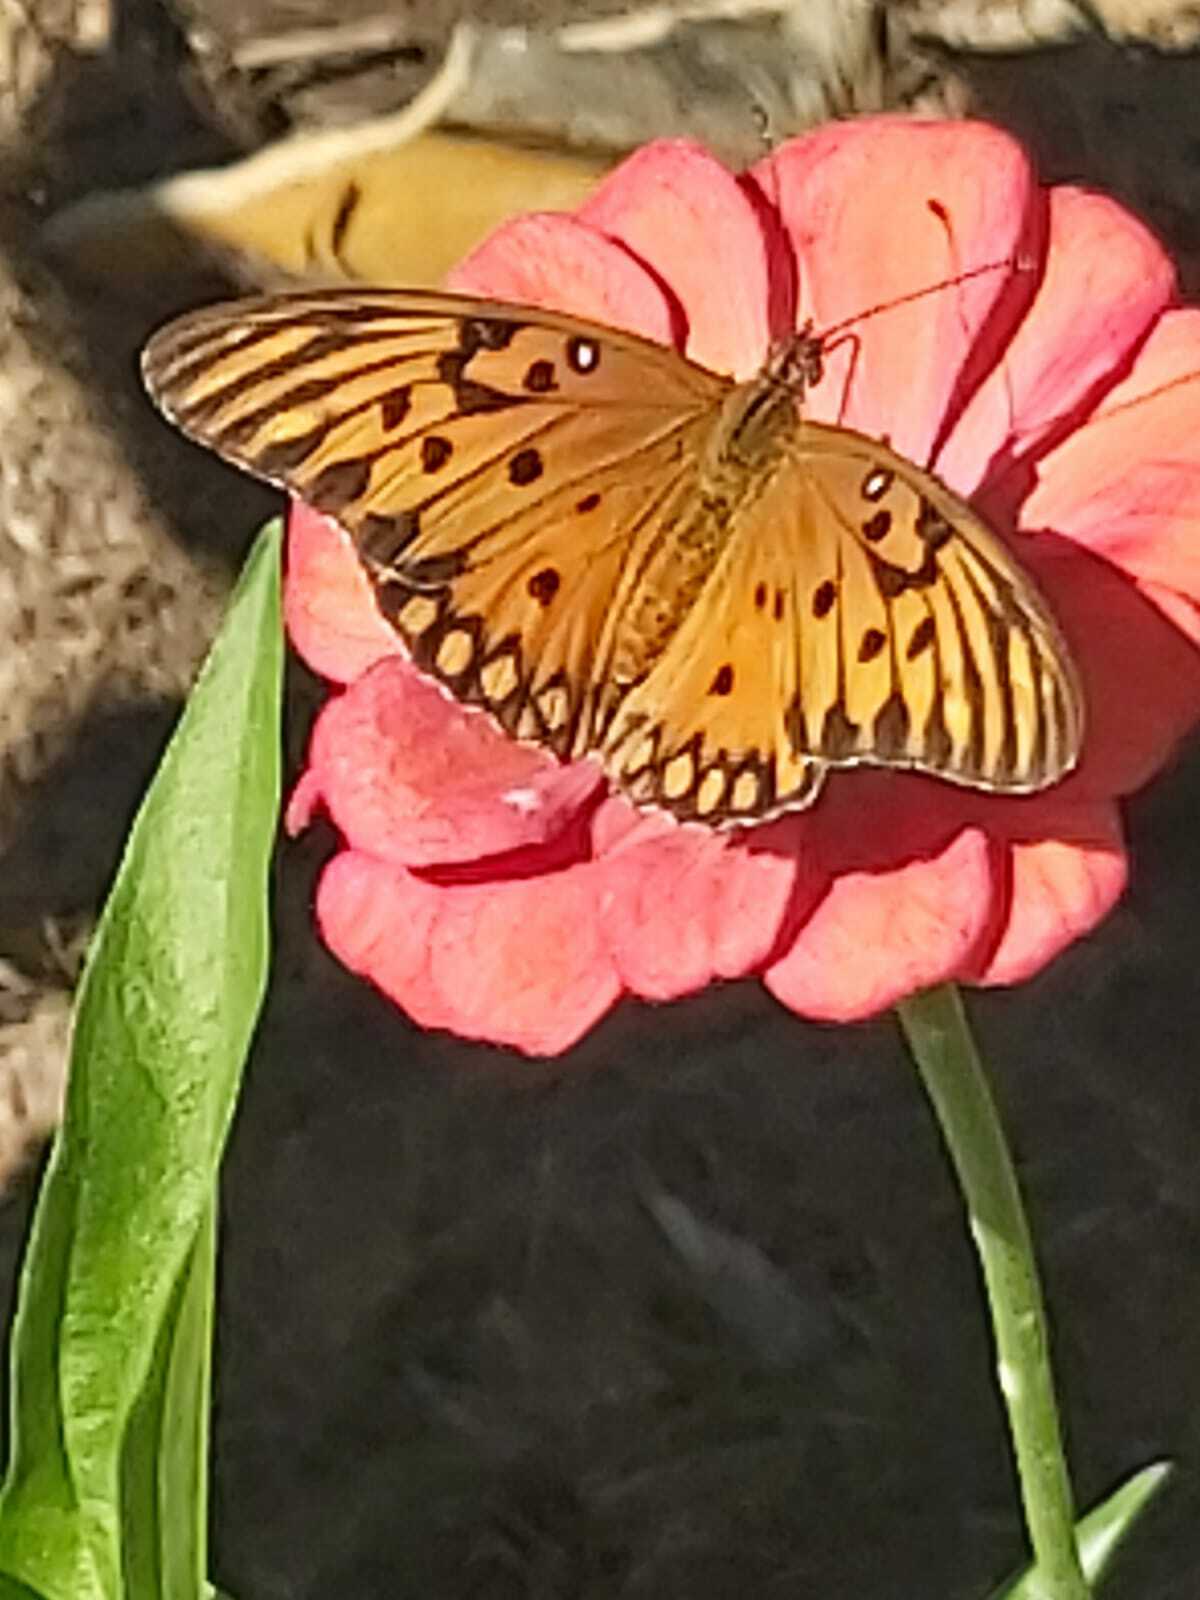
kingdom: Animalia
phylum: Arthropoda
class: Insecta
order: Lepidoptera
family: Nymphalidae
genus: Dione
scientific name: Dione vanillae
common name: Gulf fritillary
